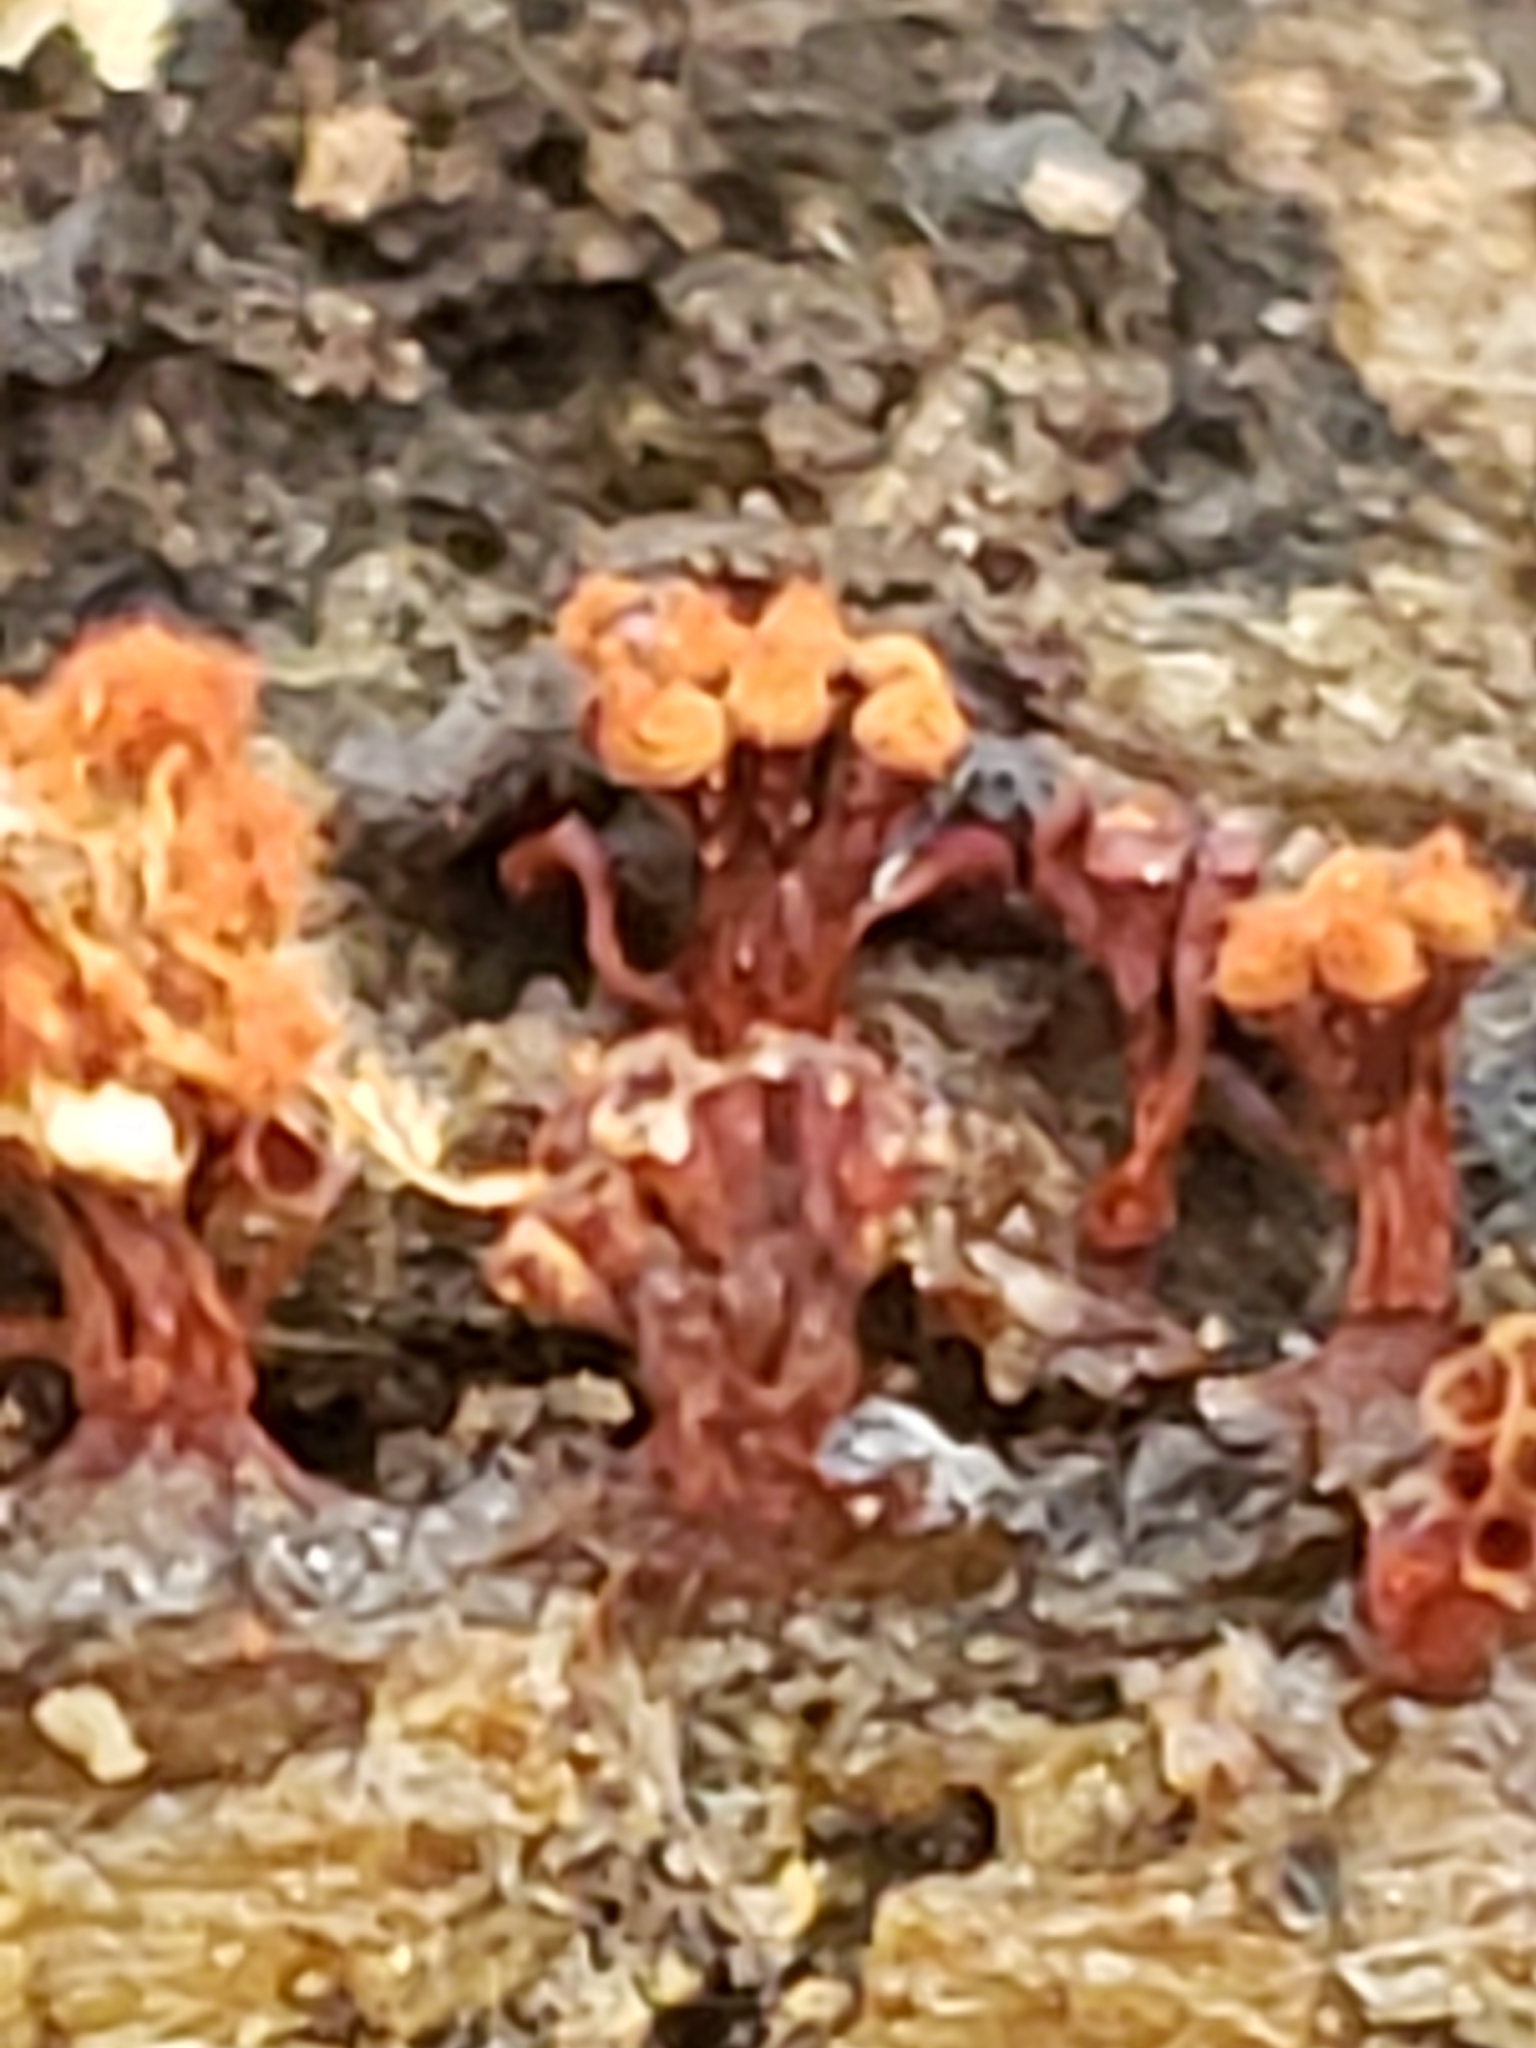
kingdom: Protozoa
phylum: Mycetozoa
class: Myxomycetes
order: Trichiales
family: Trichiaceae
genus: Metatrichia
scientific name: Metatrichia vesparia
